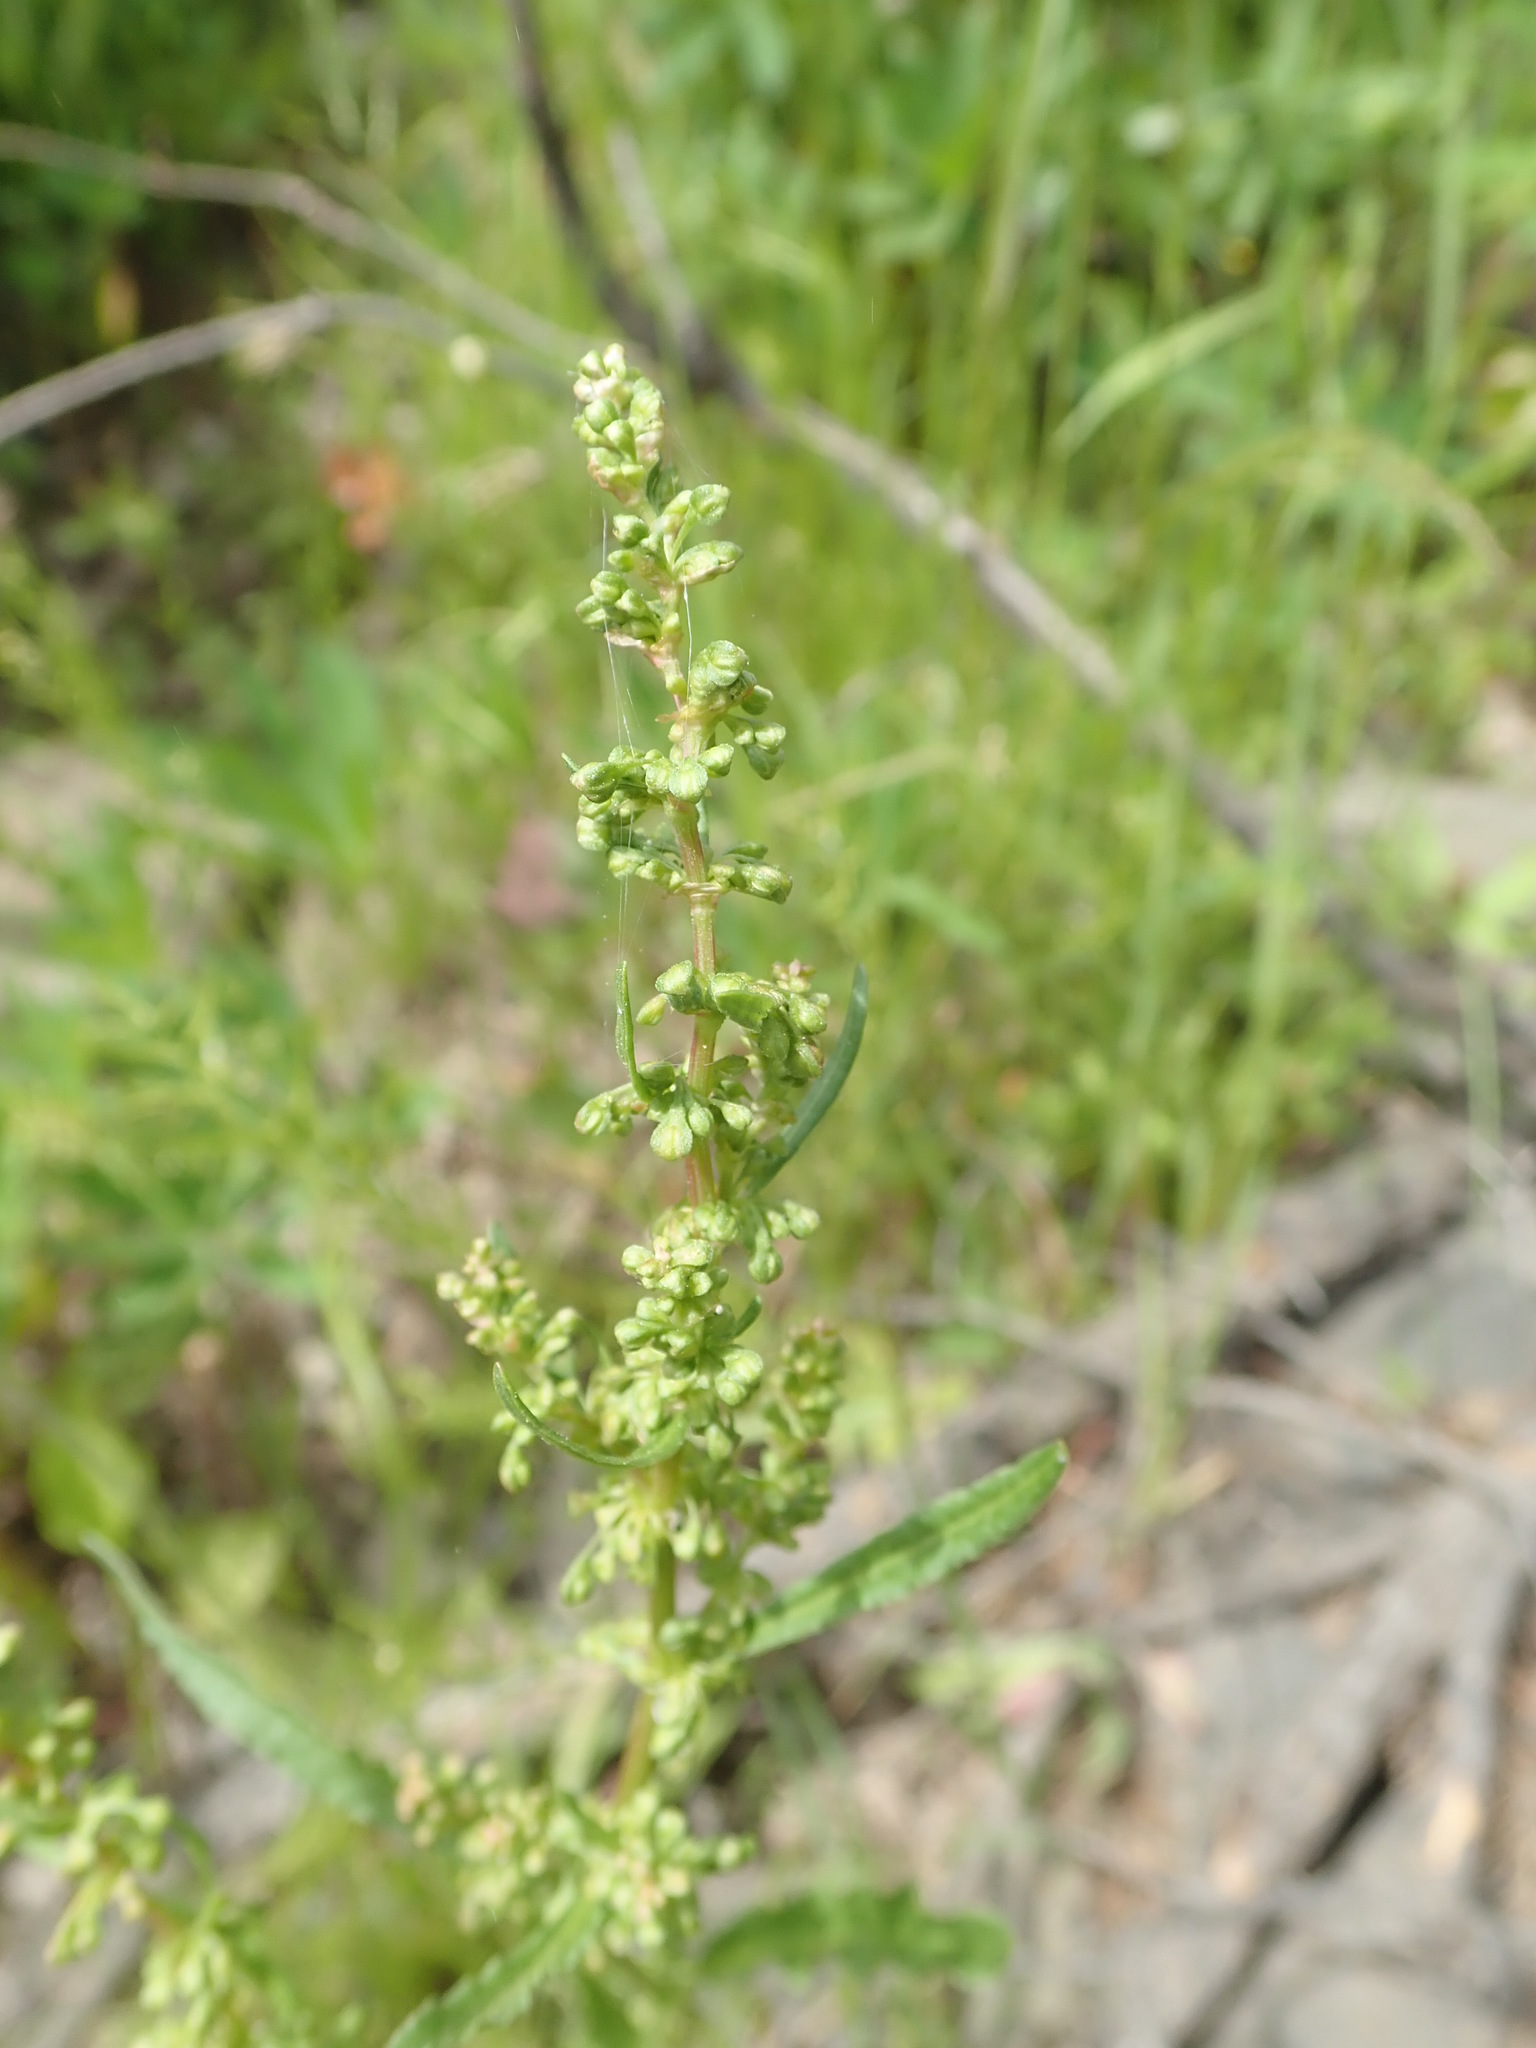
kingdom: Plantae
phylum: Tracheophyta
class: Magnoliopsida
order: Caryophyllales
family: Polygonaceae
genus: Rumex
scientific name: Rumex crispus
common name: Curled dock
